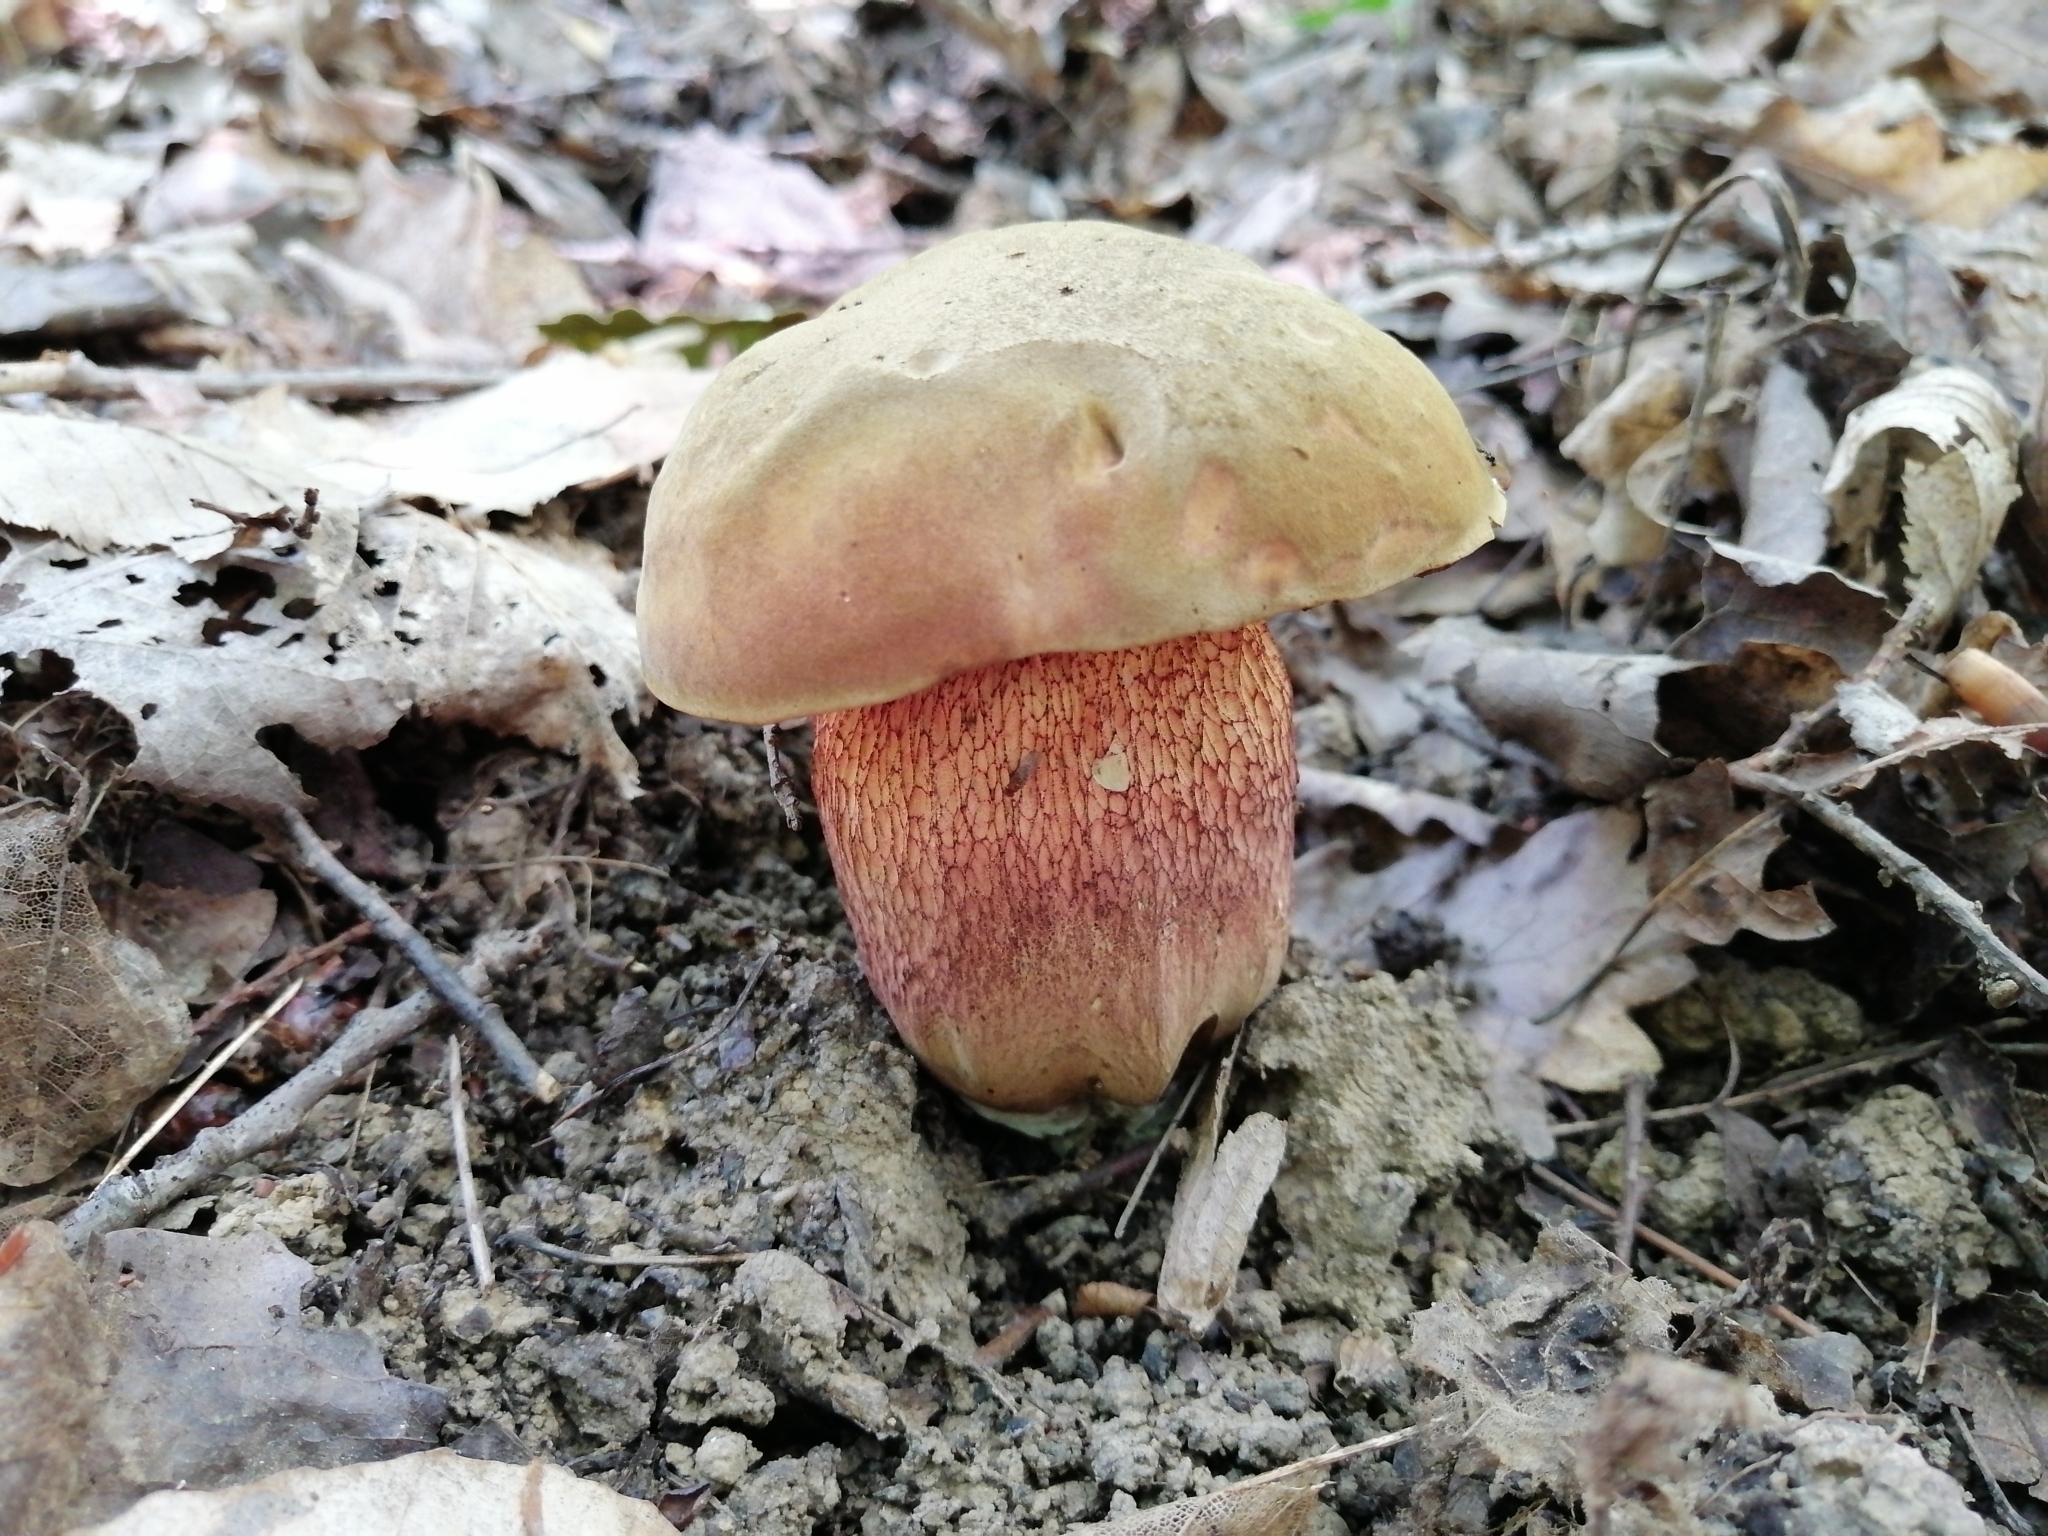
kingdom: Fungi
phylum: Basidiomycota
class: Agaricomycetes
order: Boletales
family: Boletaceae
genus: Suillellus
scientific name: Suillellus mendax
